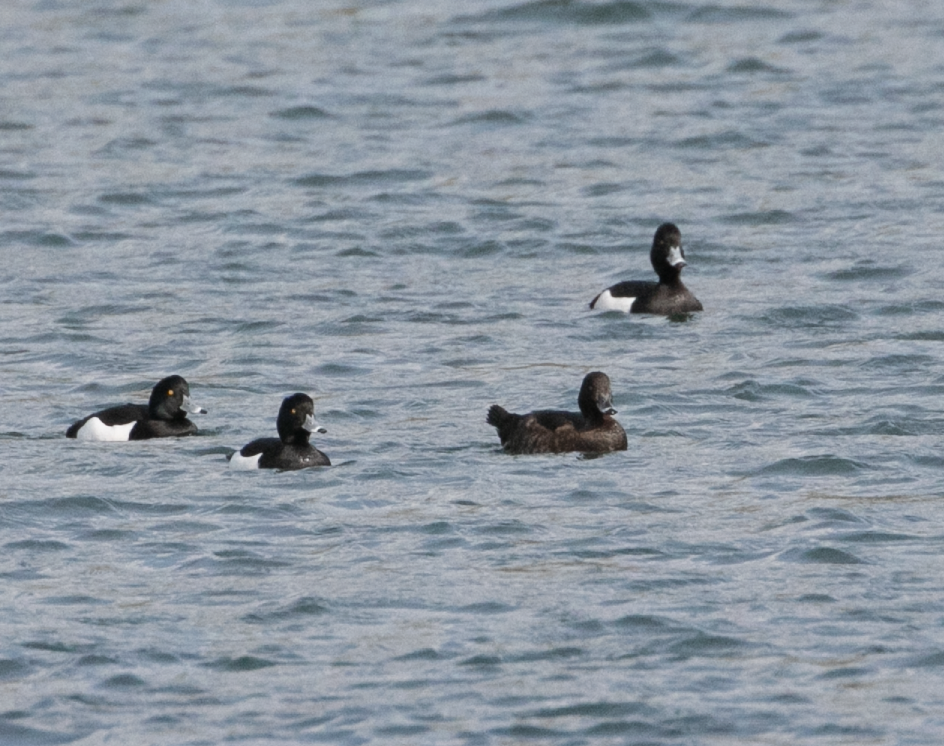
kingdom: Animalia
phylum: Chordata
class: Aves
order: Anseriformes
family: Anatidae
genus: Aythya
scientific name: Aythya fuligula
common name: Tufted duck
